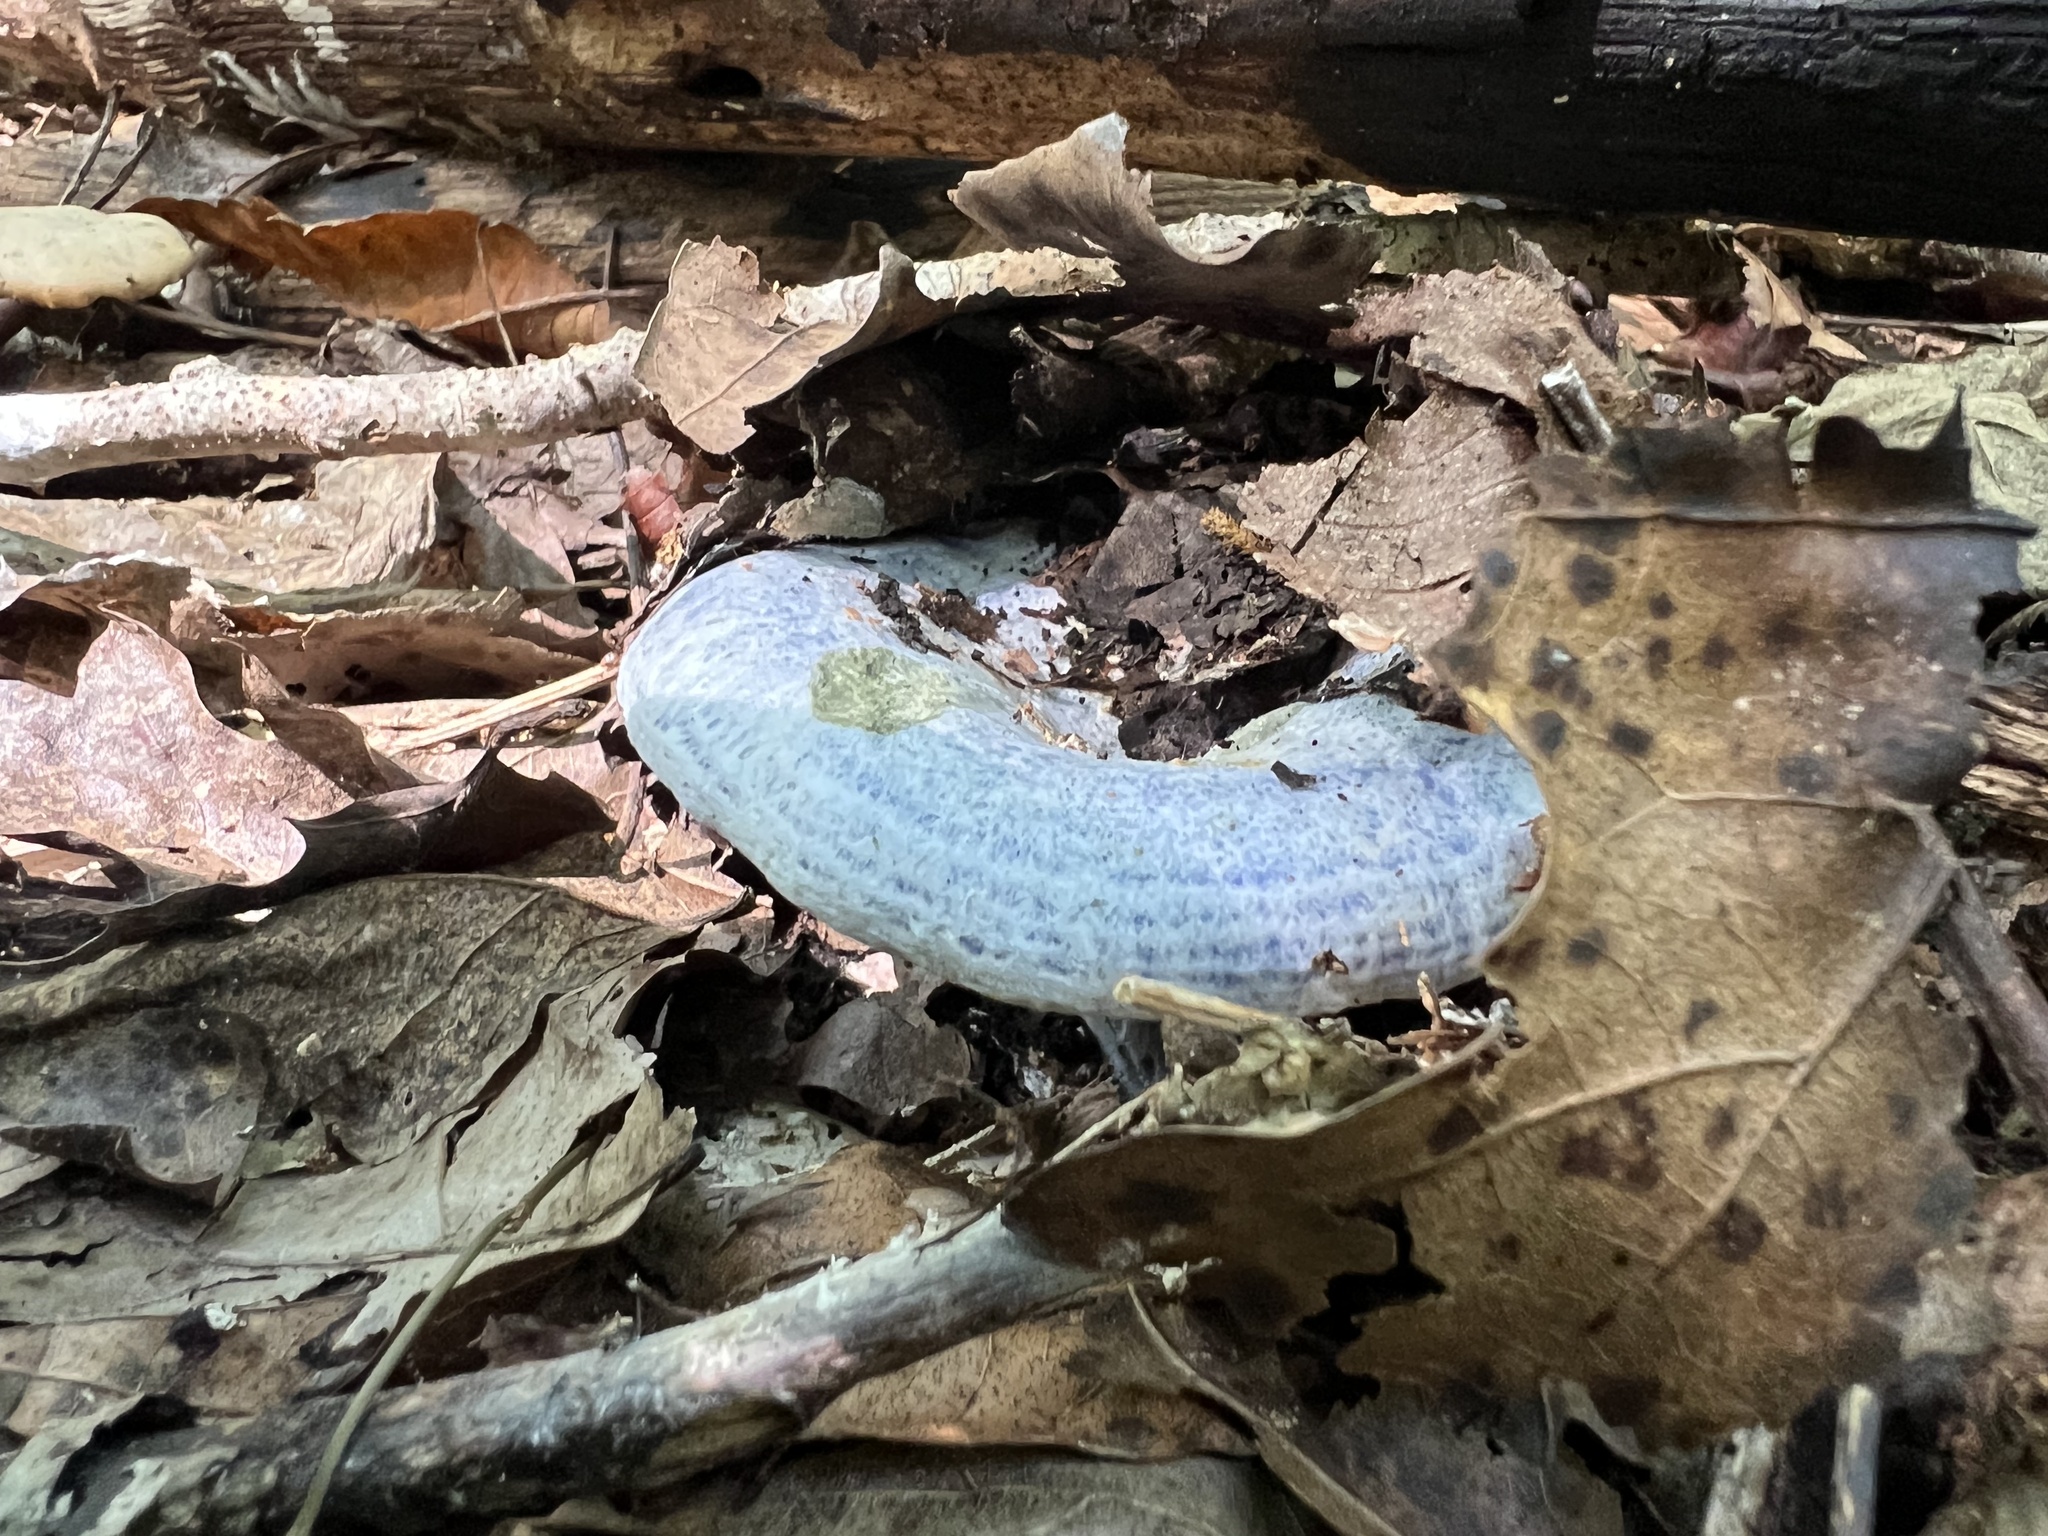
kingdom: Fungi
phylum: Basidiomycota
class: Agaricomycetes
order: Russulales
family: Russulaceae
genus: Lactarius
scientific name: Lactarius indigo
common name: Indigo milk cap
